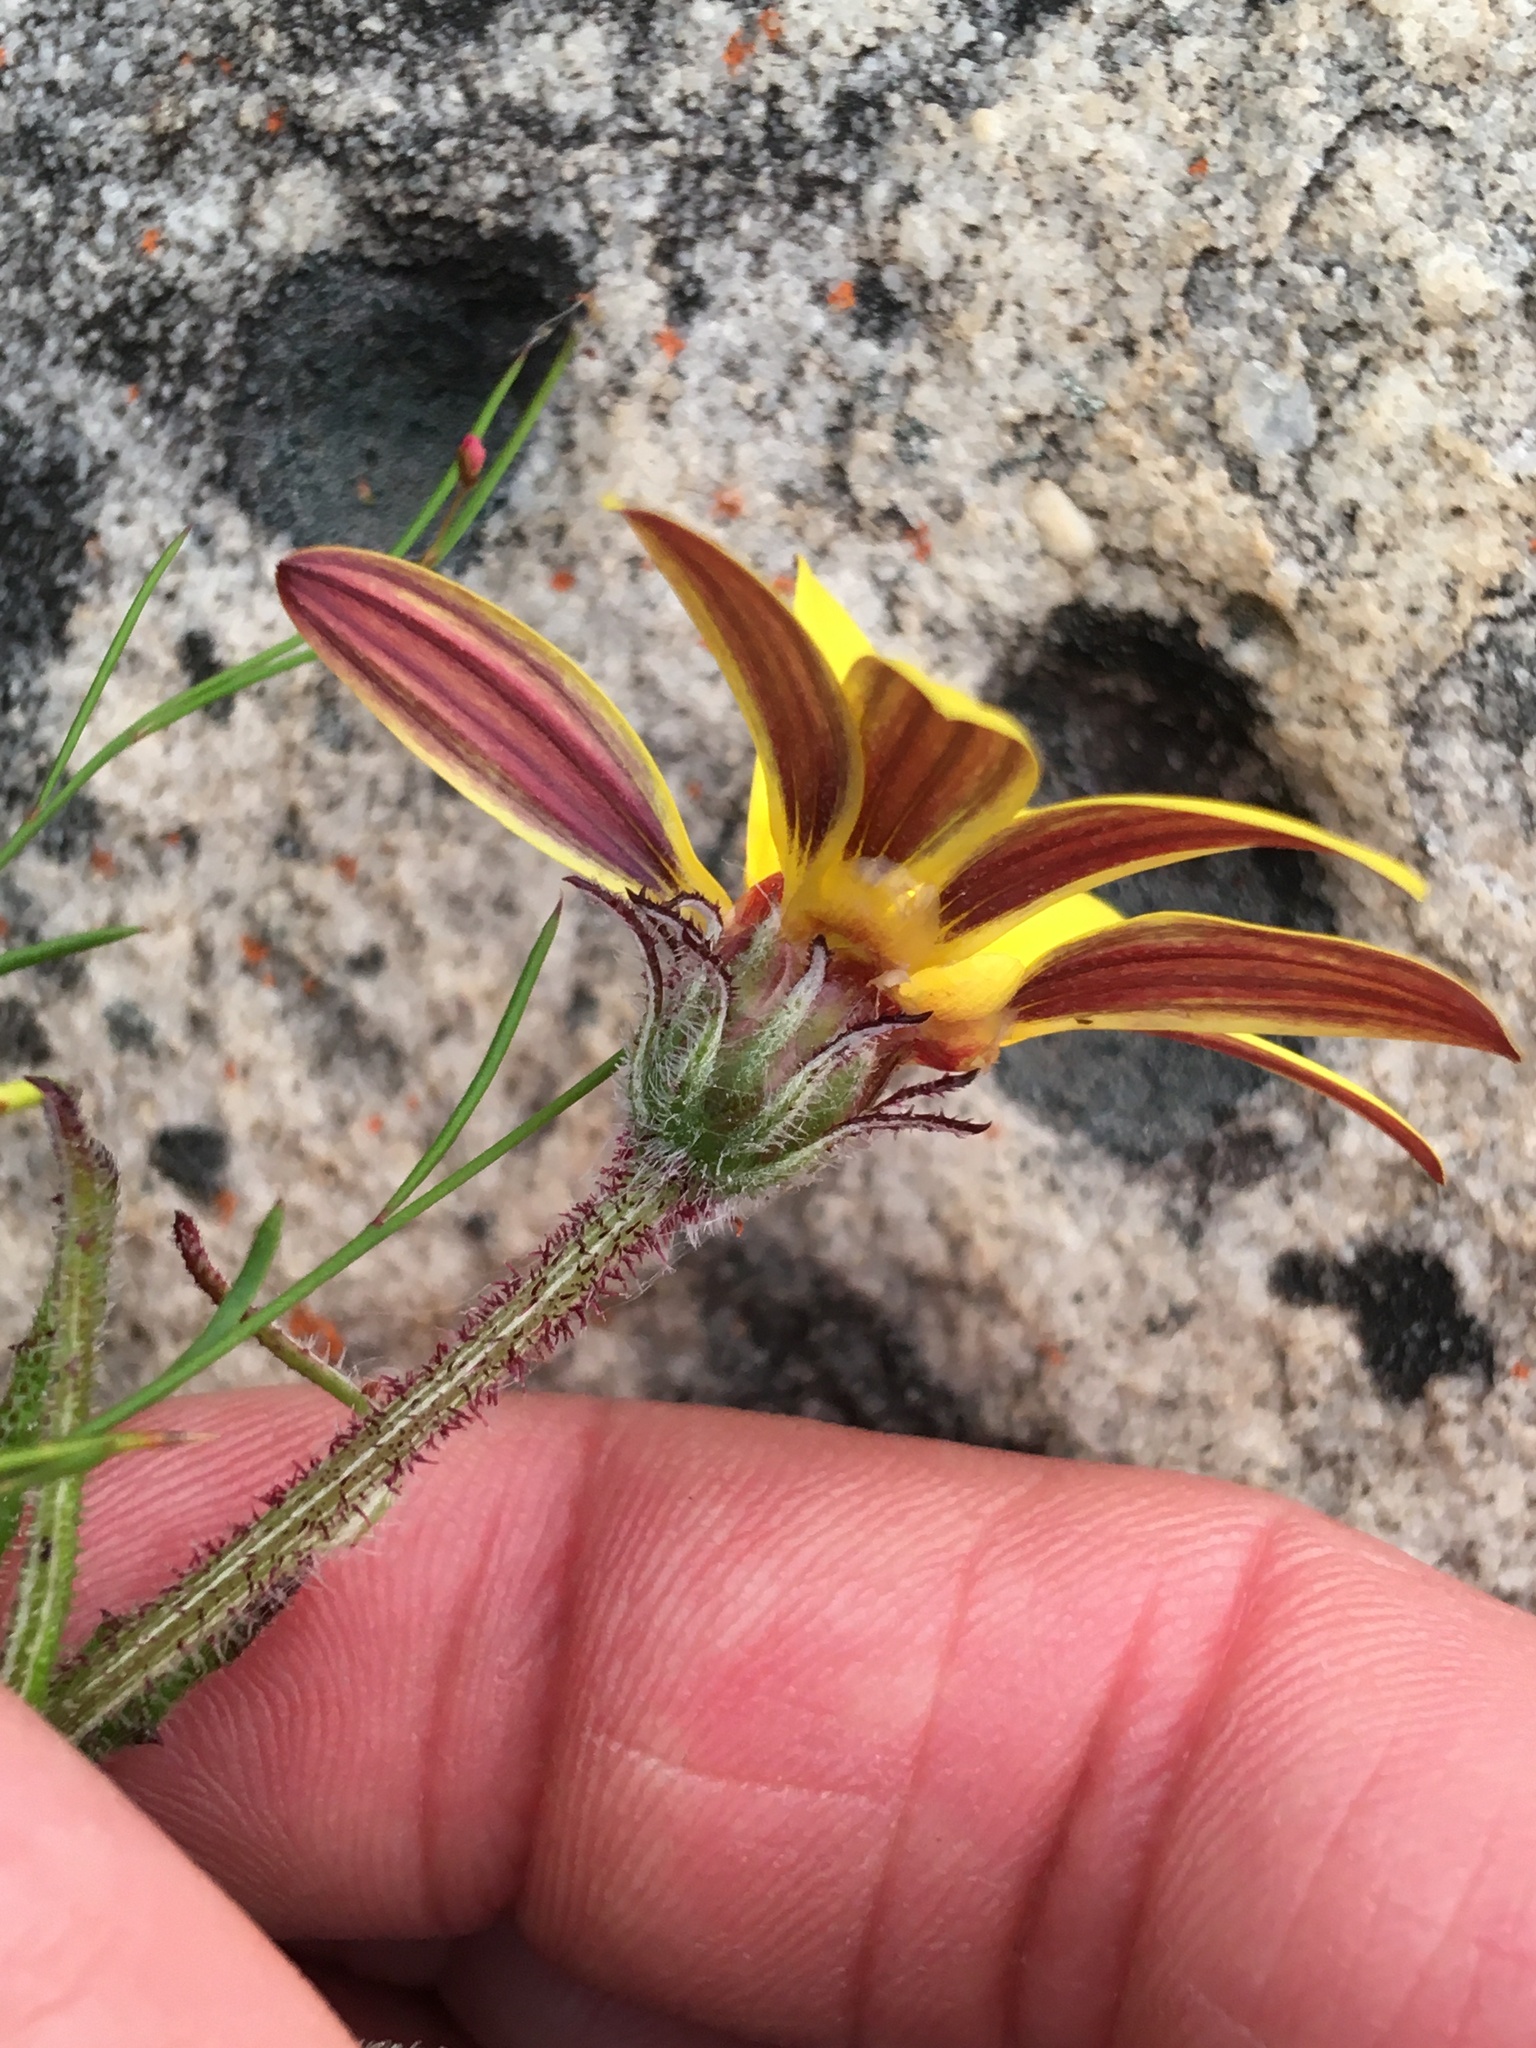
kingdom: Plantae
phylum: Tracheophyta
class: Magnoliopsida
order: Asterales
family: Asteraceae
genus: Arctotis
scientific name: Arctotis scabra
